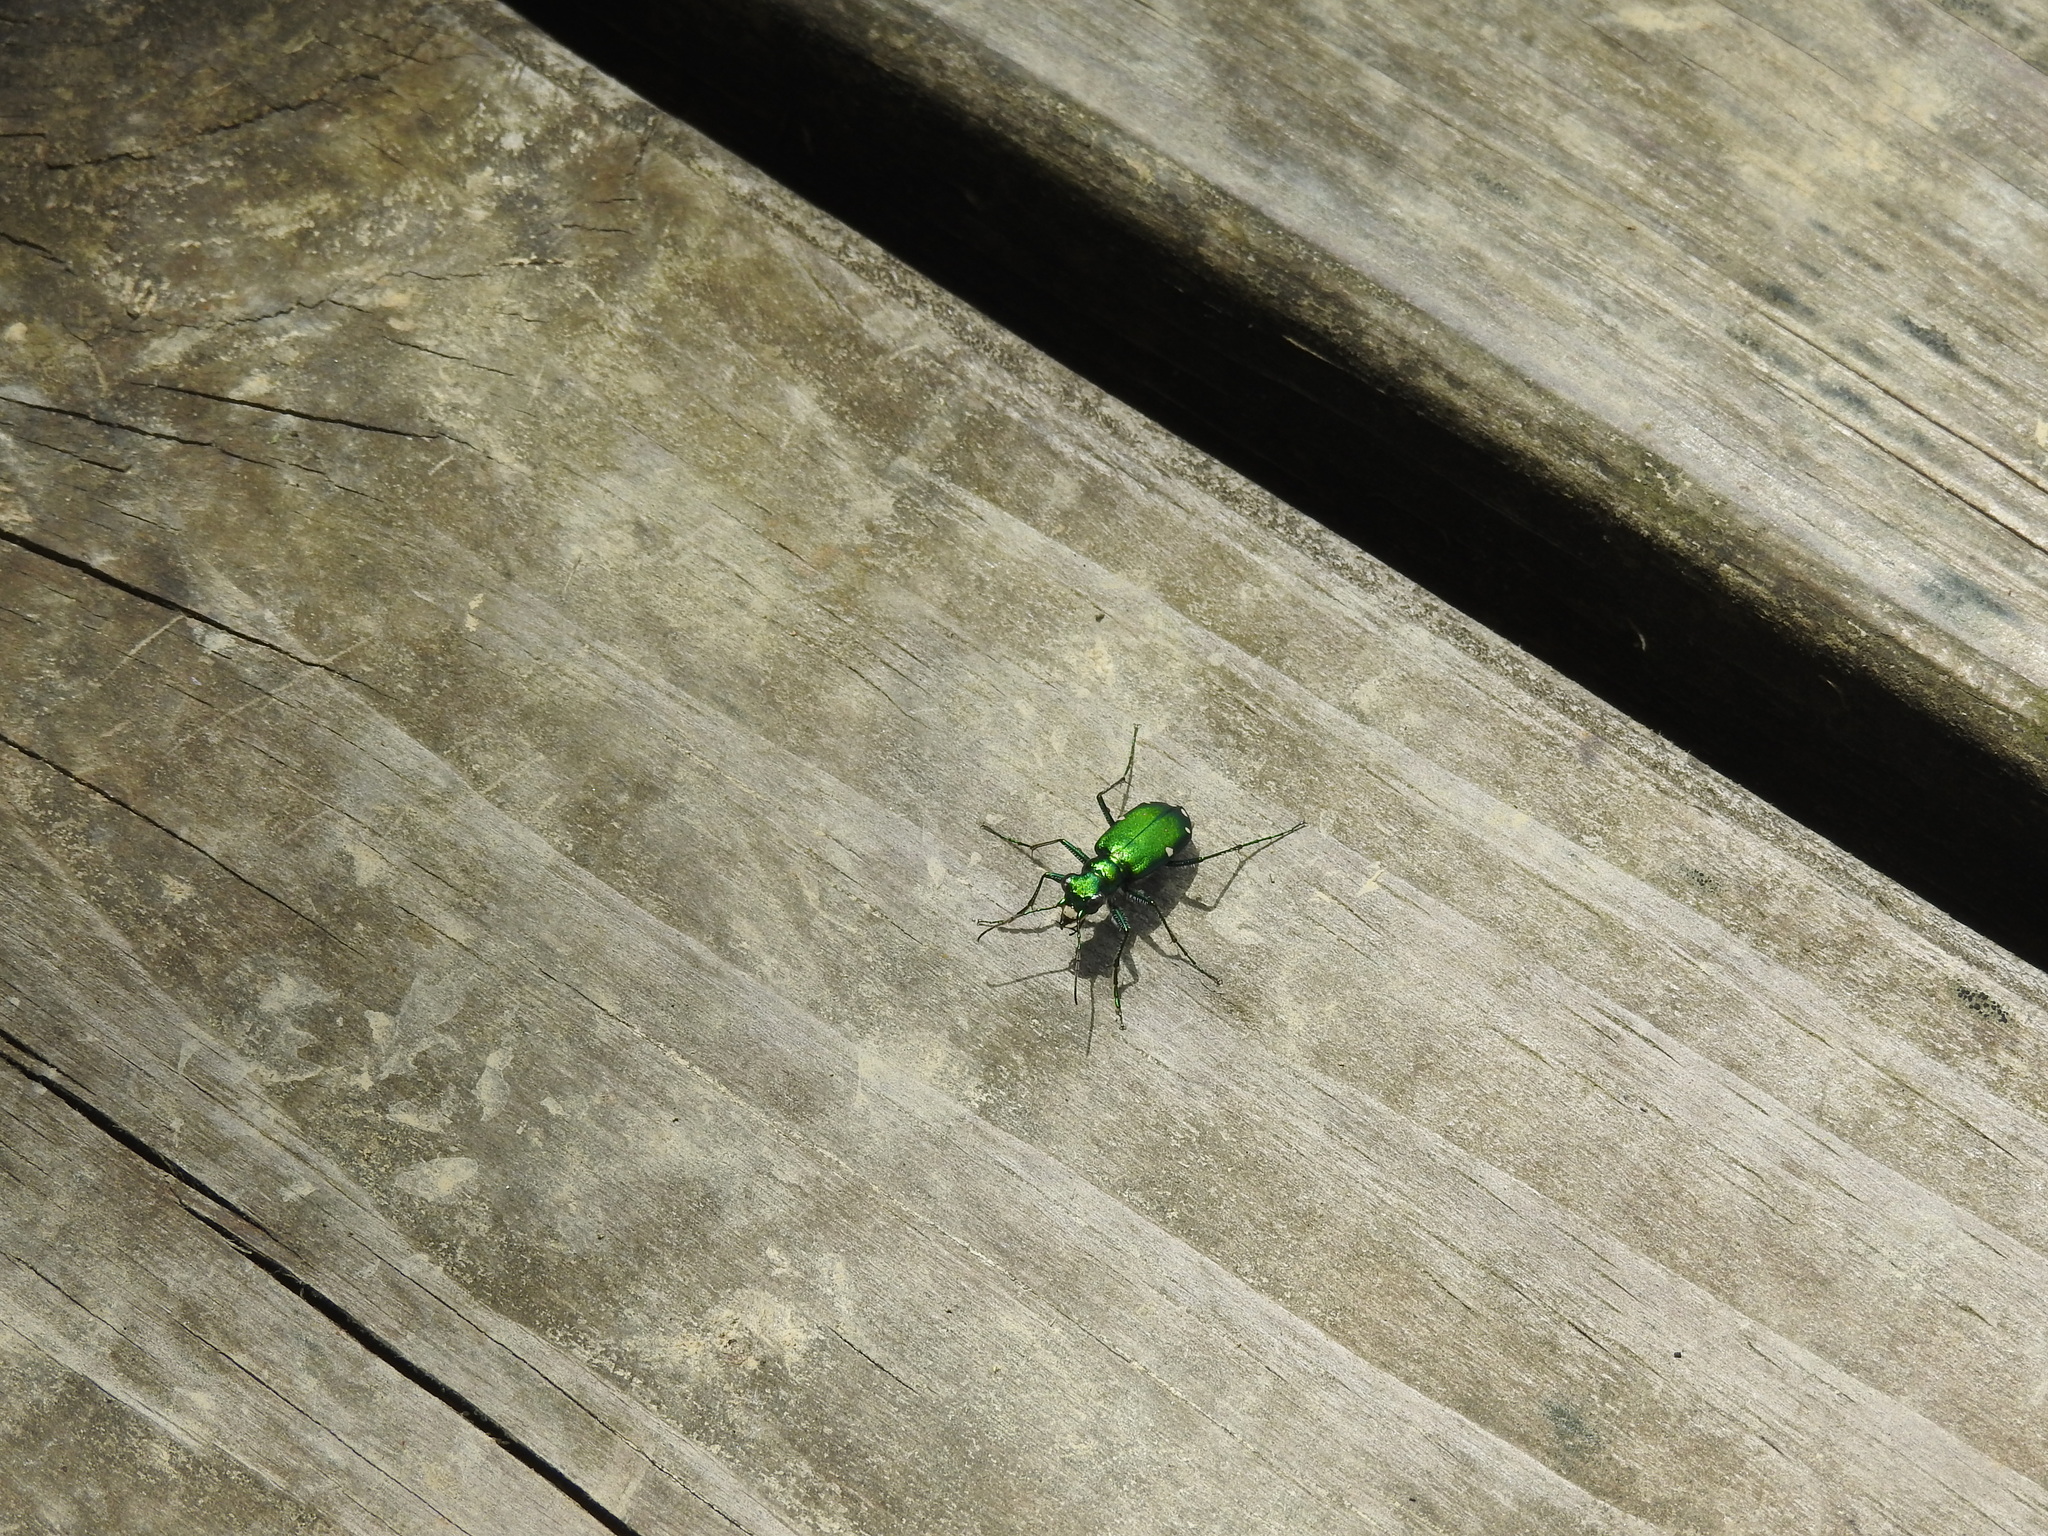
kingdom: Animalia
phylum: Arthropoda
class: Insecta
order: Coleoptera
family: Carabidae
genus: Cicindela
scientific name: Cicindela sexguttata
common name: Six-spotted tiger beetle
